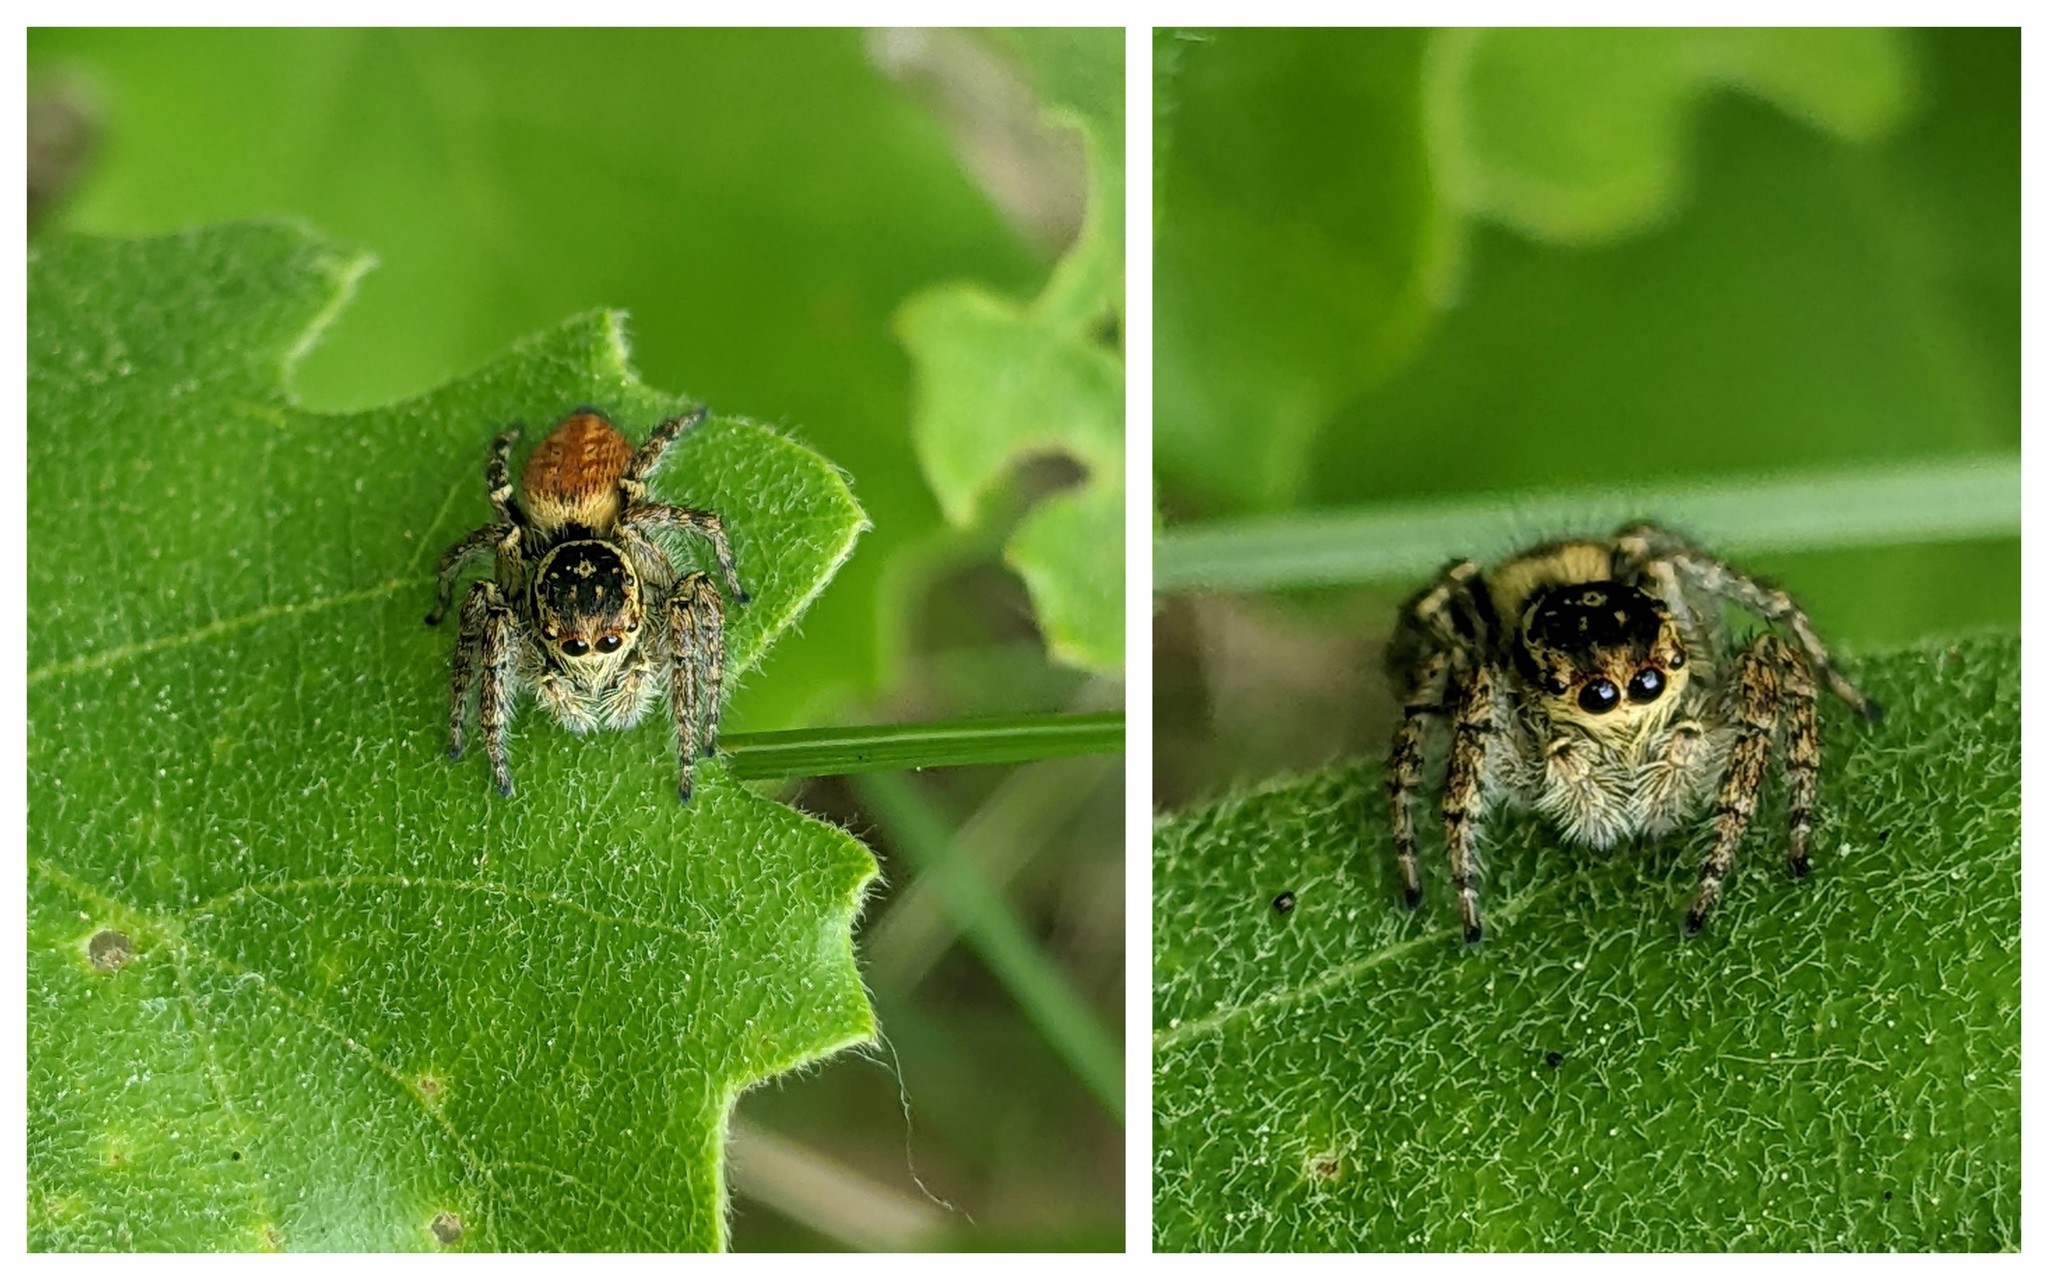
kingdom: Animalia
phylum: Arthropoda
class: Arachnida
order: Araneae
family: Salticidae
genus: Carrhotus
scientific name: Carrhotus xanthogramma
